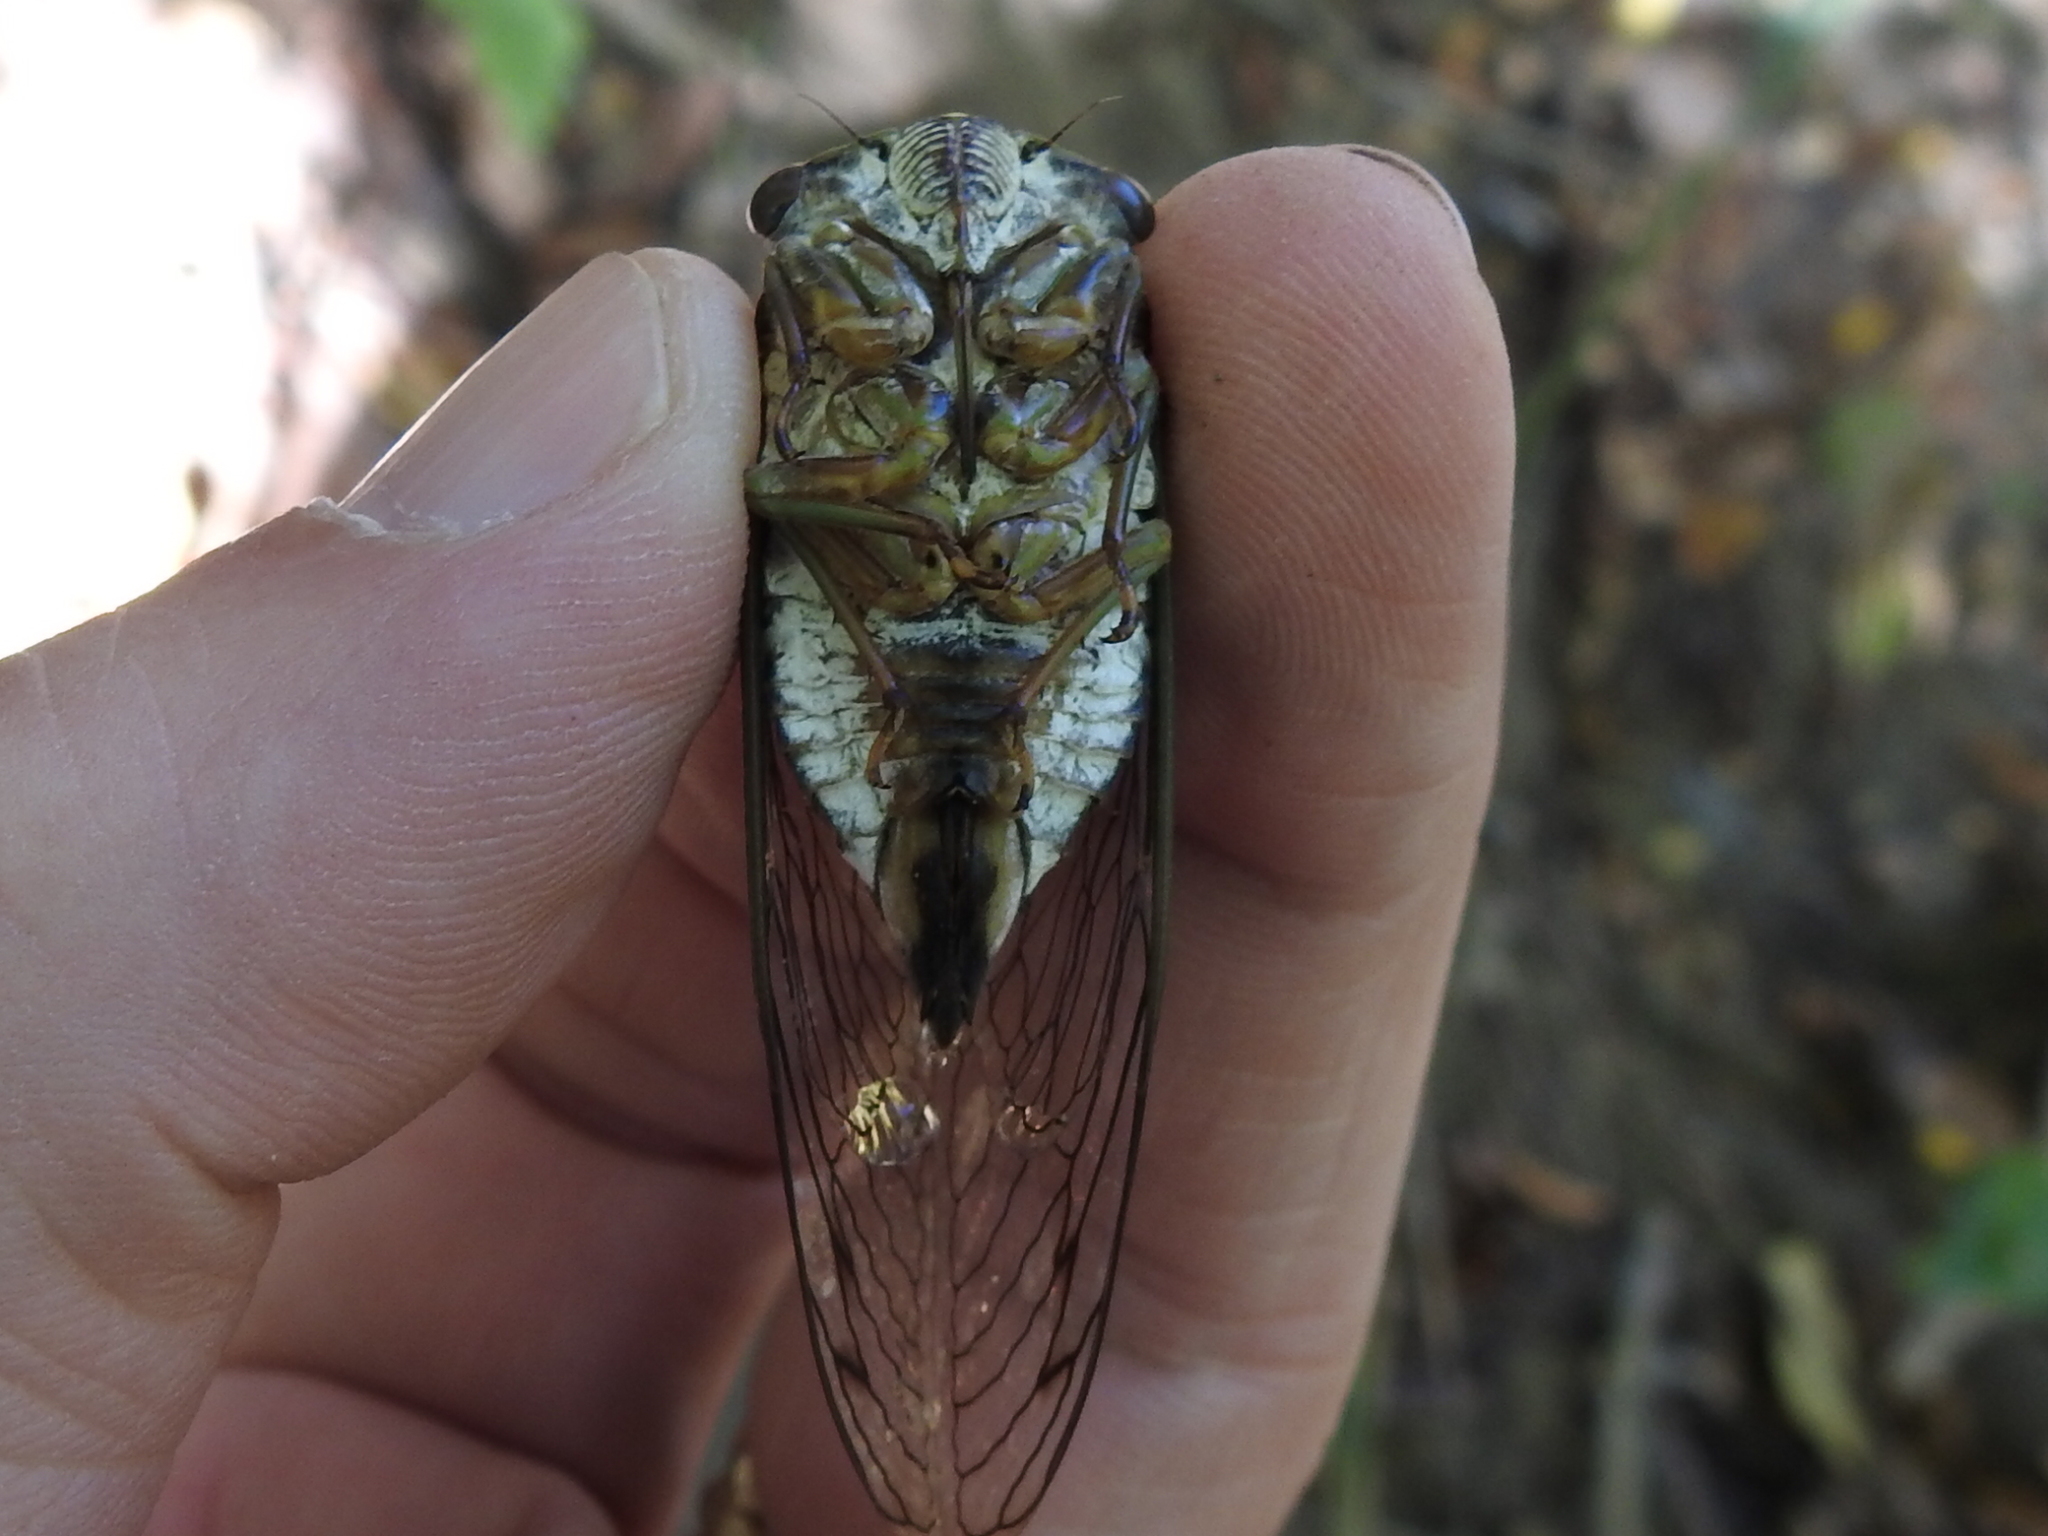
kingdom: Animalia
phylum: Arthropoda
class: Insecta
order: Hemiptera
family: Cicadidae
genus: Neotibicen
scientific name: Neotibicen pruinosus
